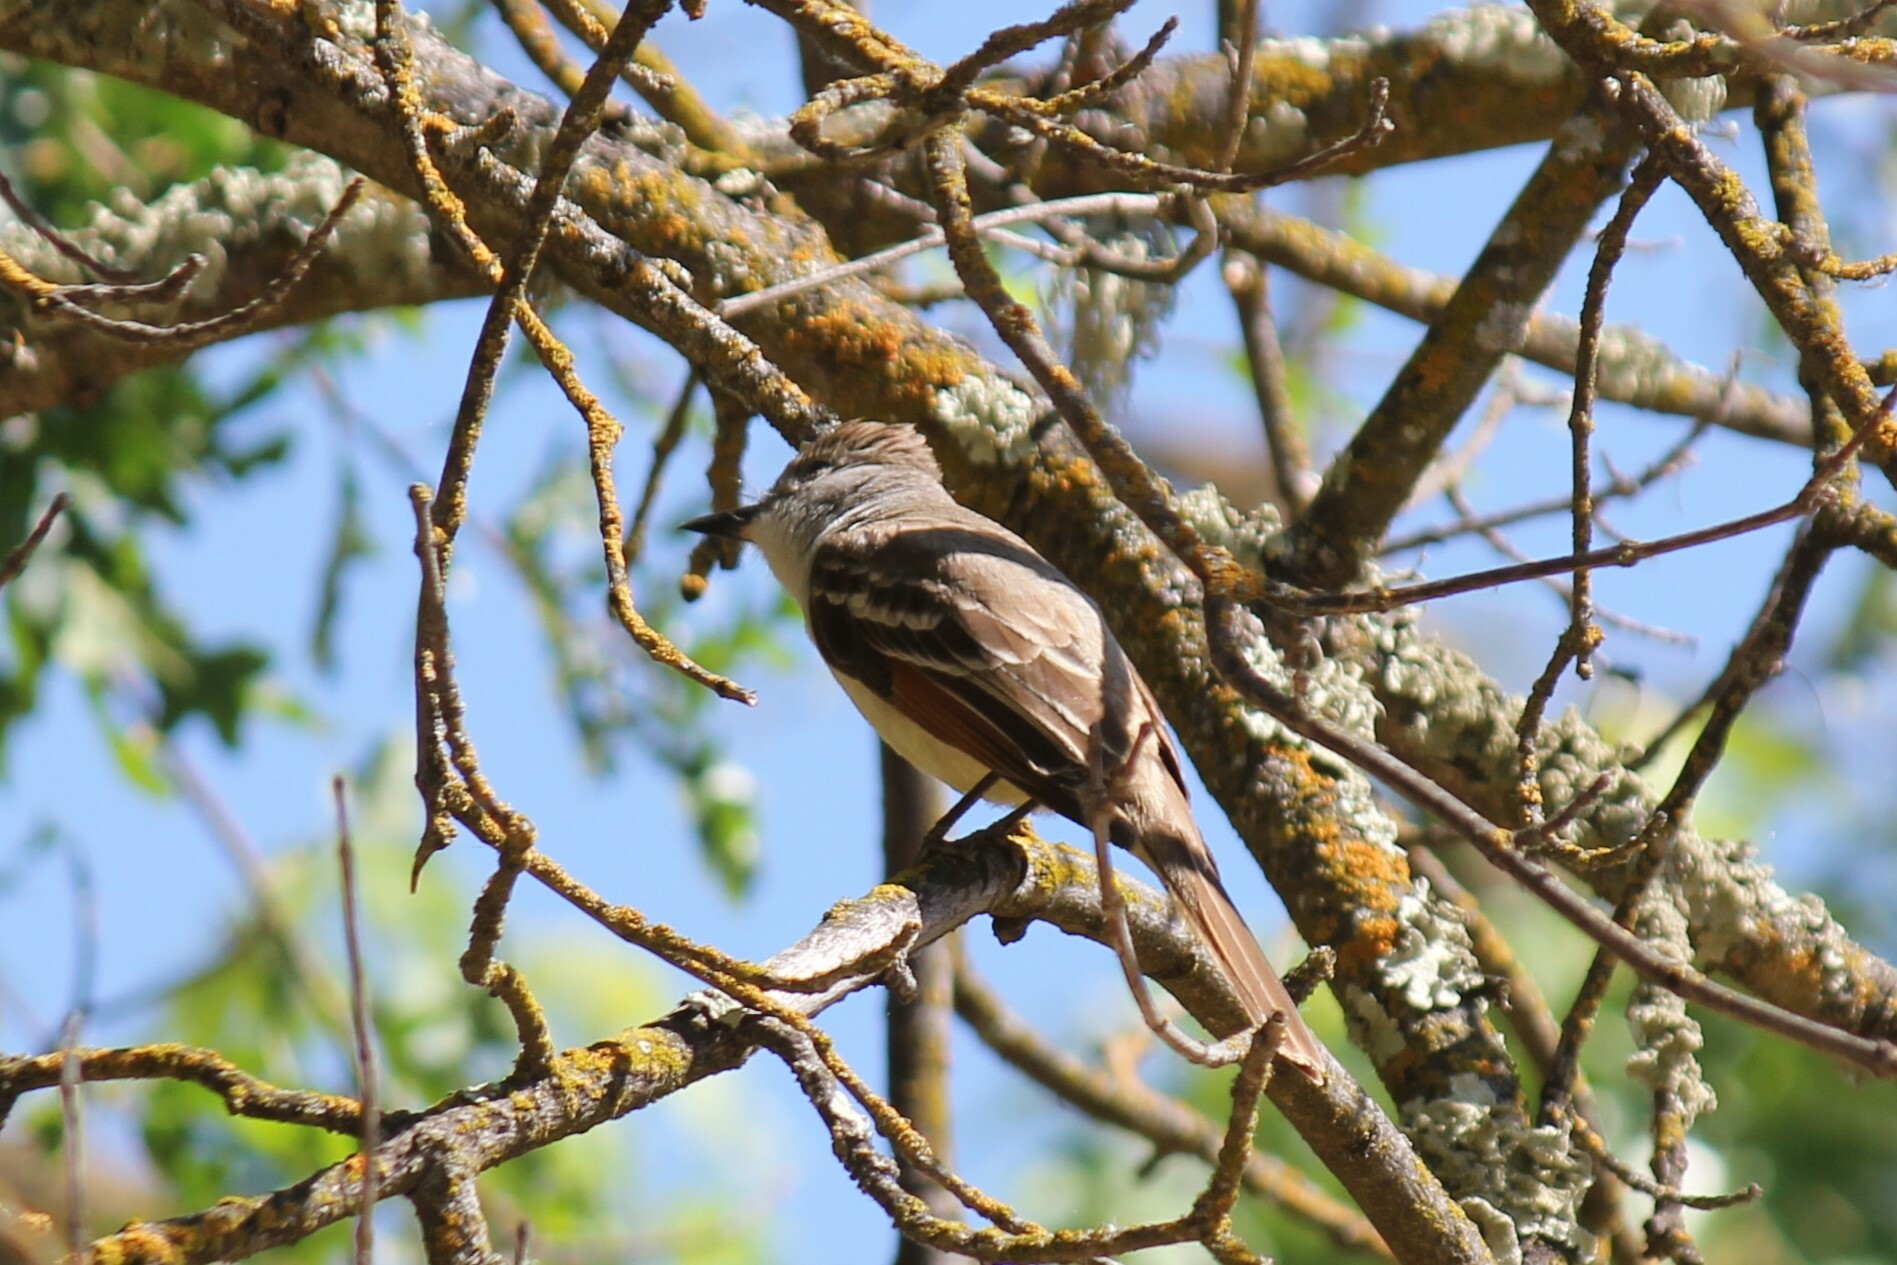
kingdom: Animalia
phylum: Chordata
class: Aves
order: Passeriformes
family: Tyrannidae
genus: Myiarchus
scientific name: Myiarchus cinerascens
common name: Ash-throated flycatcher
